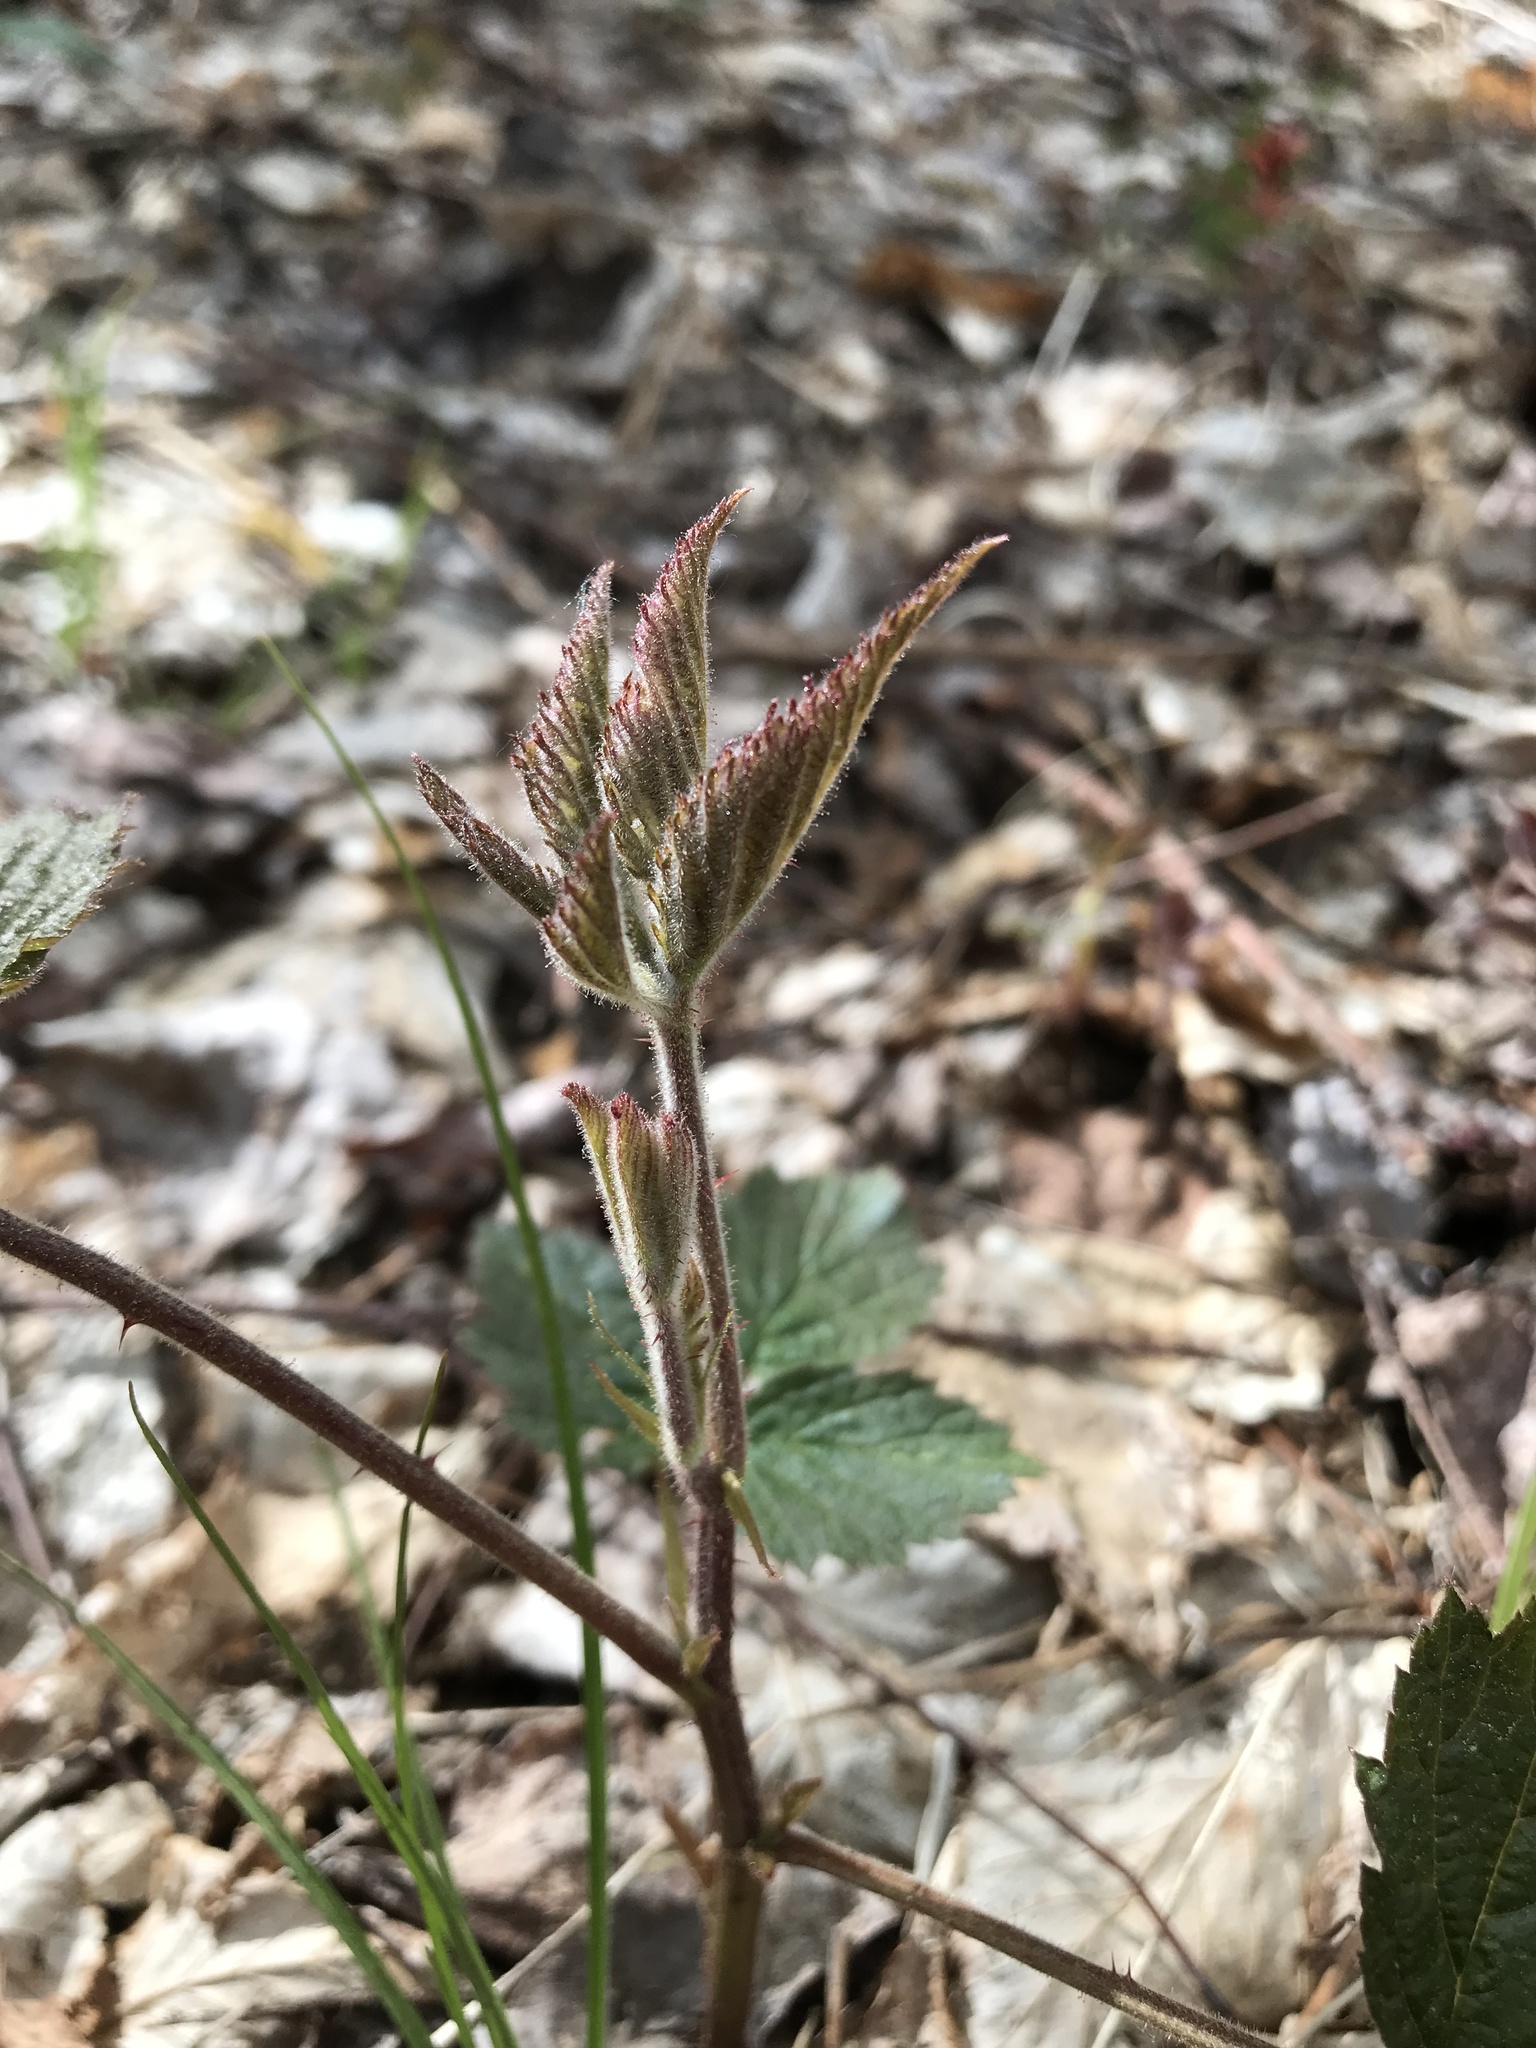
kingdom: Plantae
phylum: Tracheophyta
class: Magnoliopsida
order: Rosales
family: Rosaceae
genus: Rubus
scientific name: Rubus idaeus
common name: Raspberry
